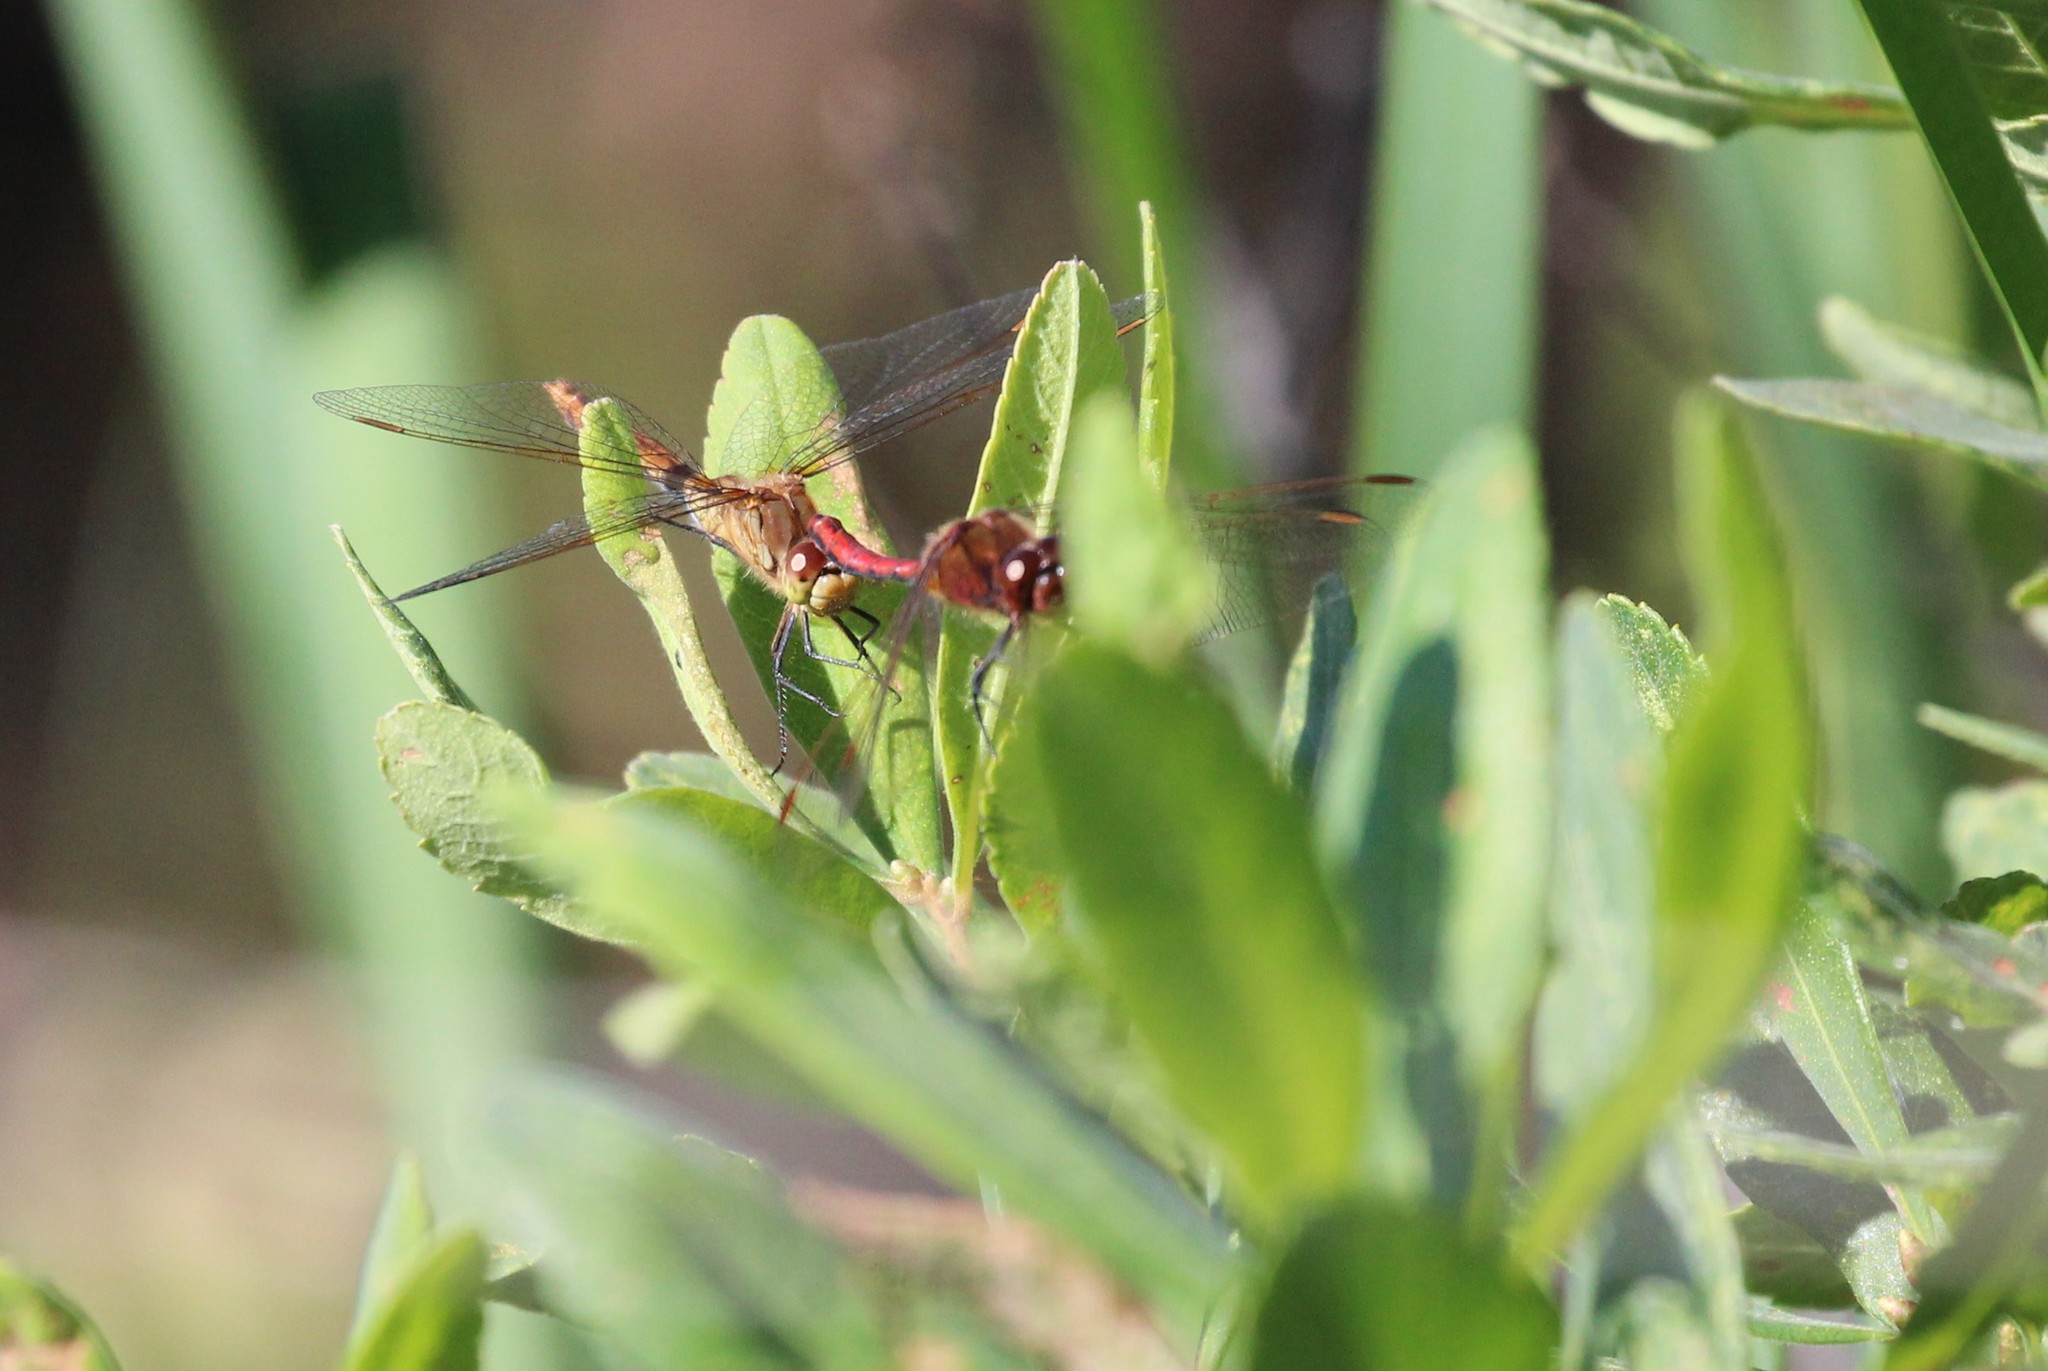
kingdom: Animalia
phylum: Arthropoda
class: Insecta
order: Odonata
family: Libellulidae
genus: Sympetrum
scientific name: Sympetrum costiferum
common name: Saffron-winged meadowhawk
